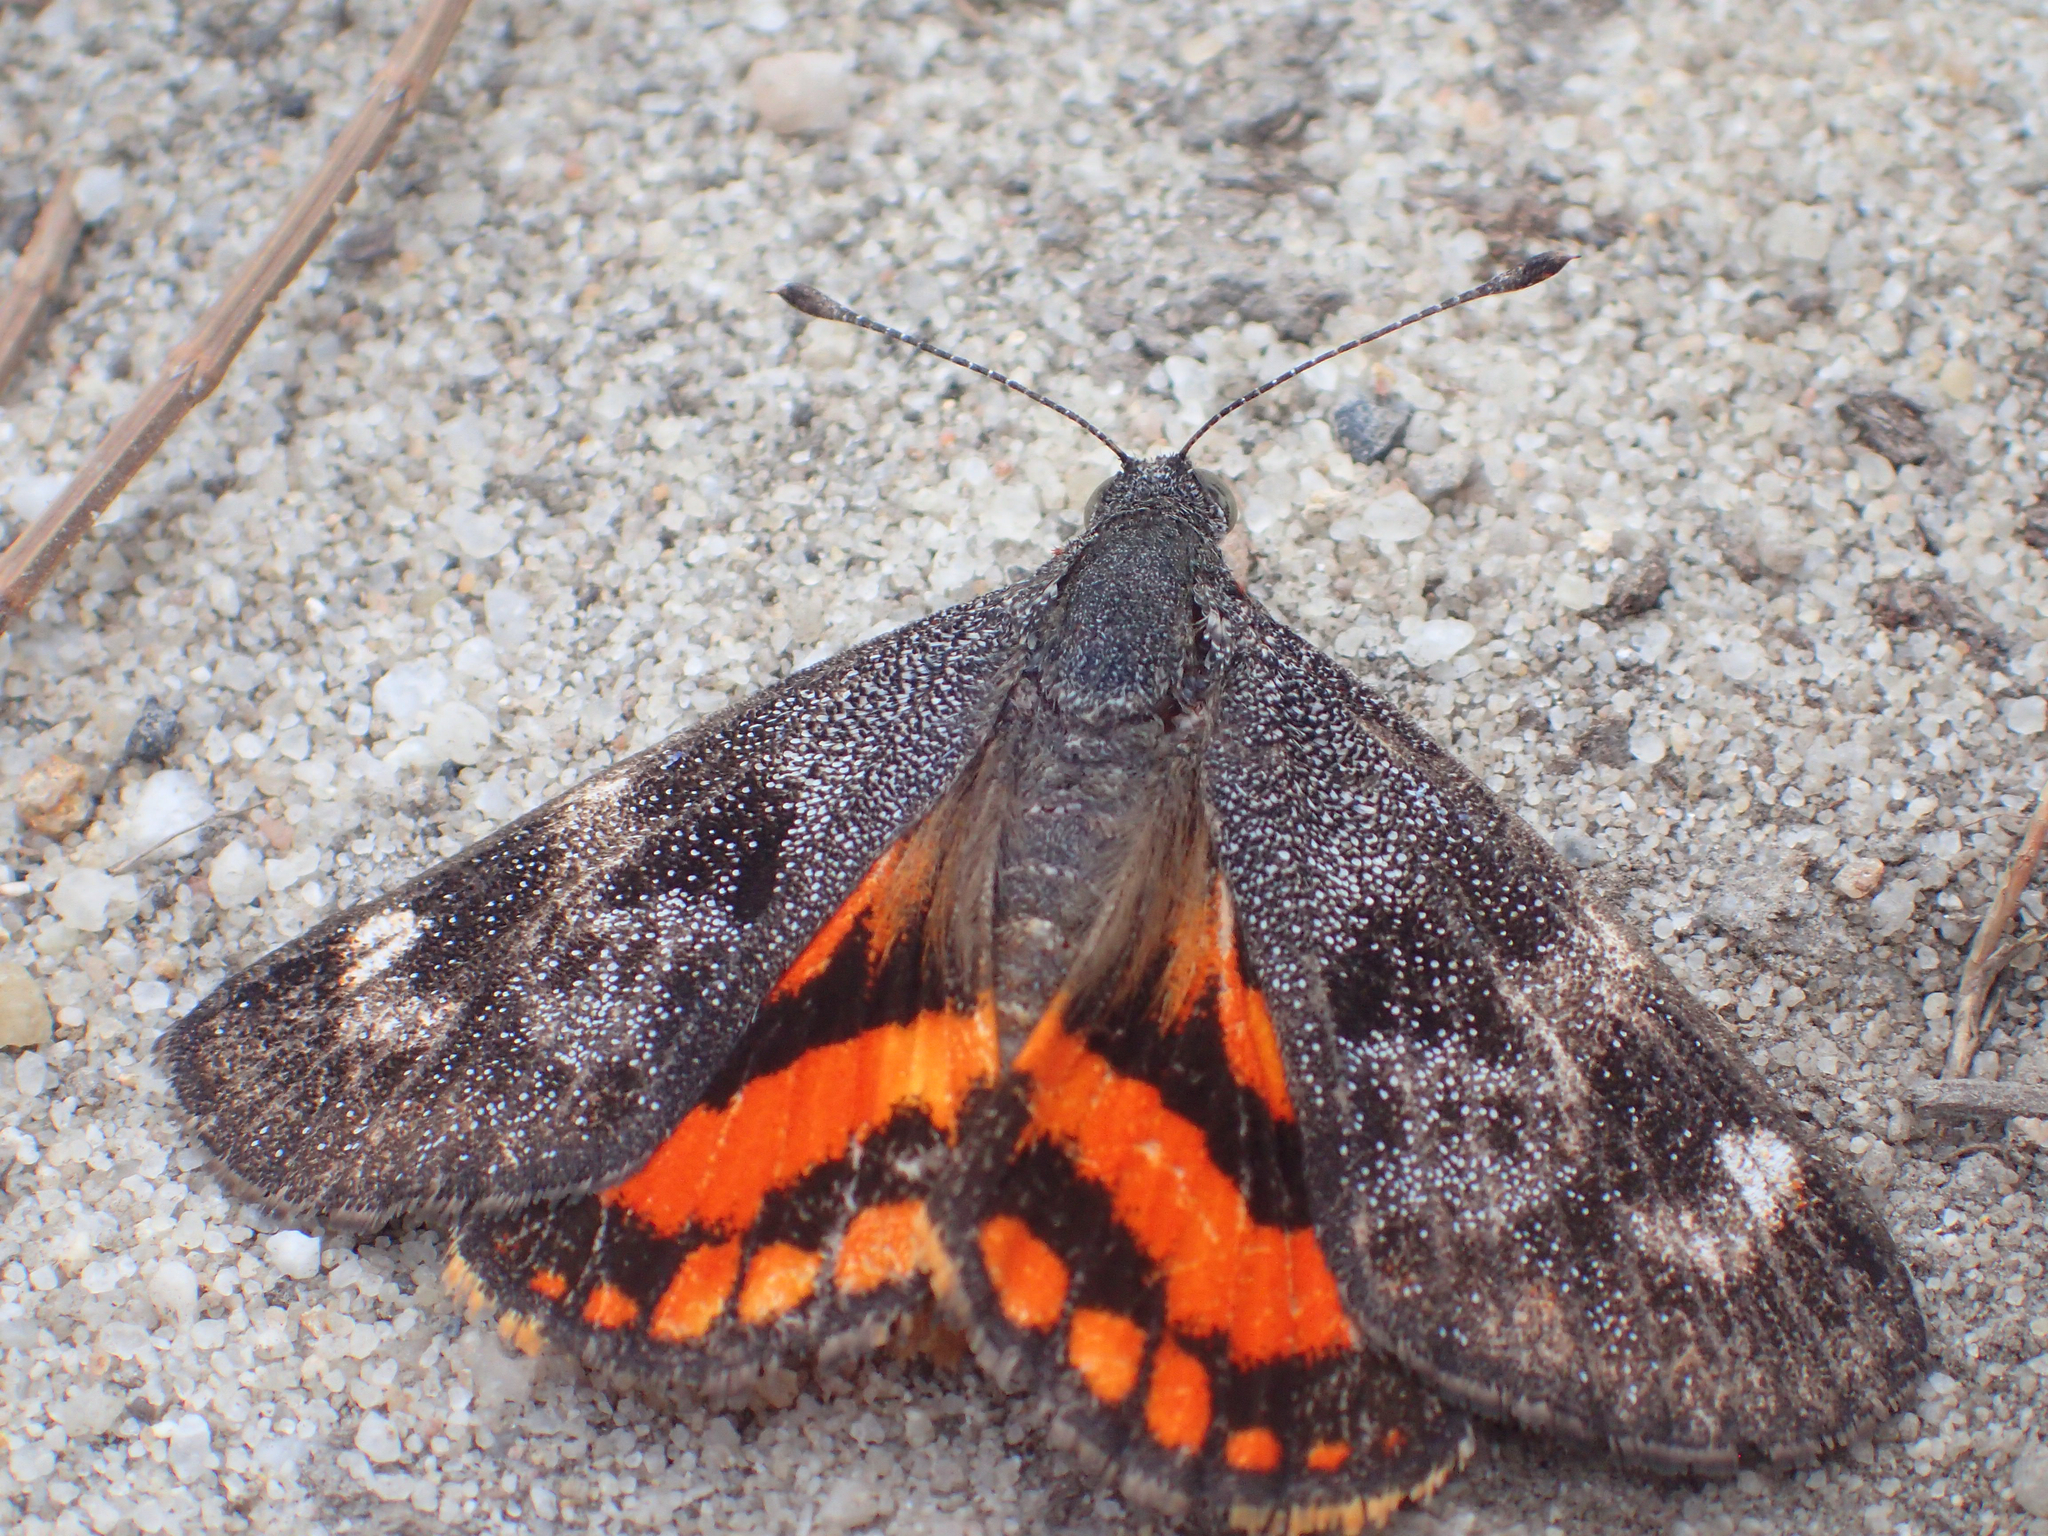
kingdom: Animalia
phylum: Arthropoda
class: Insecta
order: Lepidoptera
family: Castniidae
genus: Synemon
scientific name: Synemon magnifica
